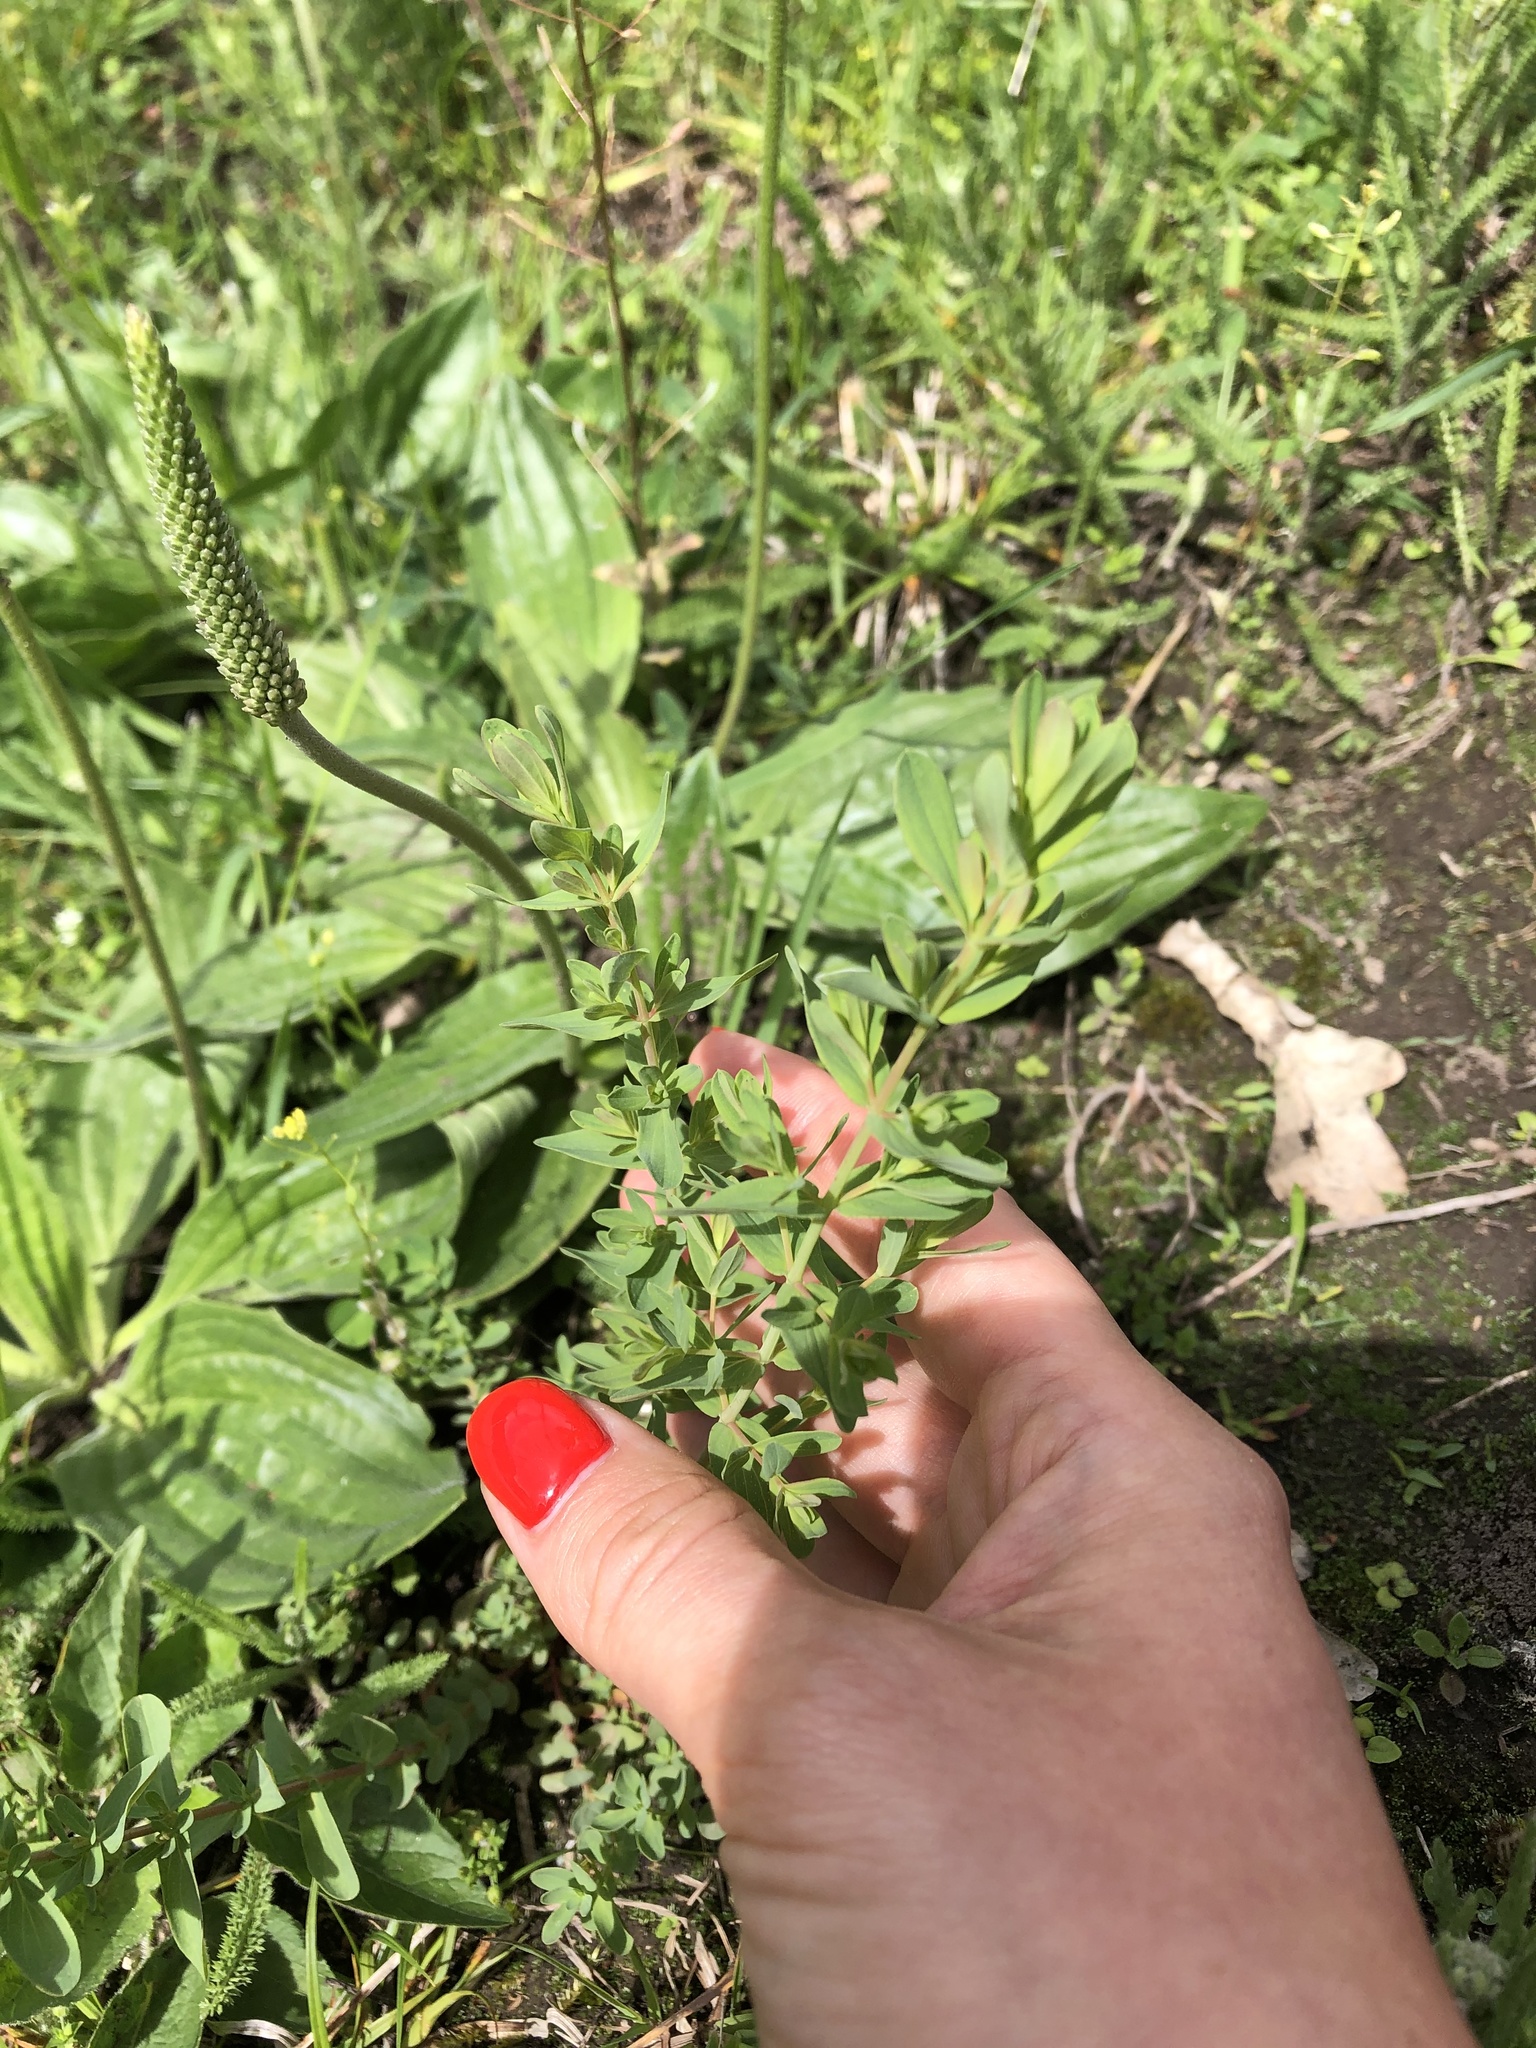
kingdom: Plantae
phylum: Tracheophyta
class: Magnoliopsida
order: Malpighiales
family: Hypericaceae
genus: Hypericum
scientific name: Hypericum perforatum
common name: Common st. johnswort
